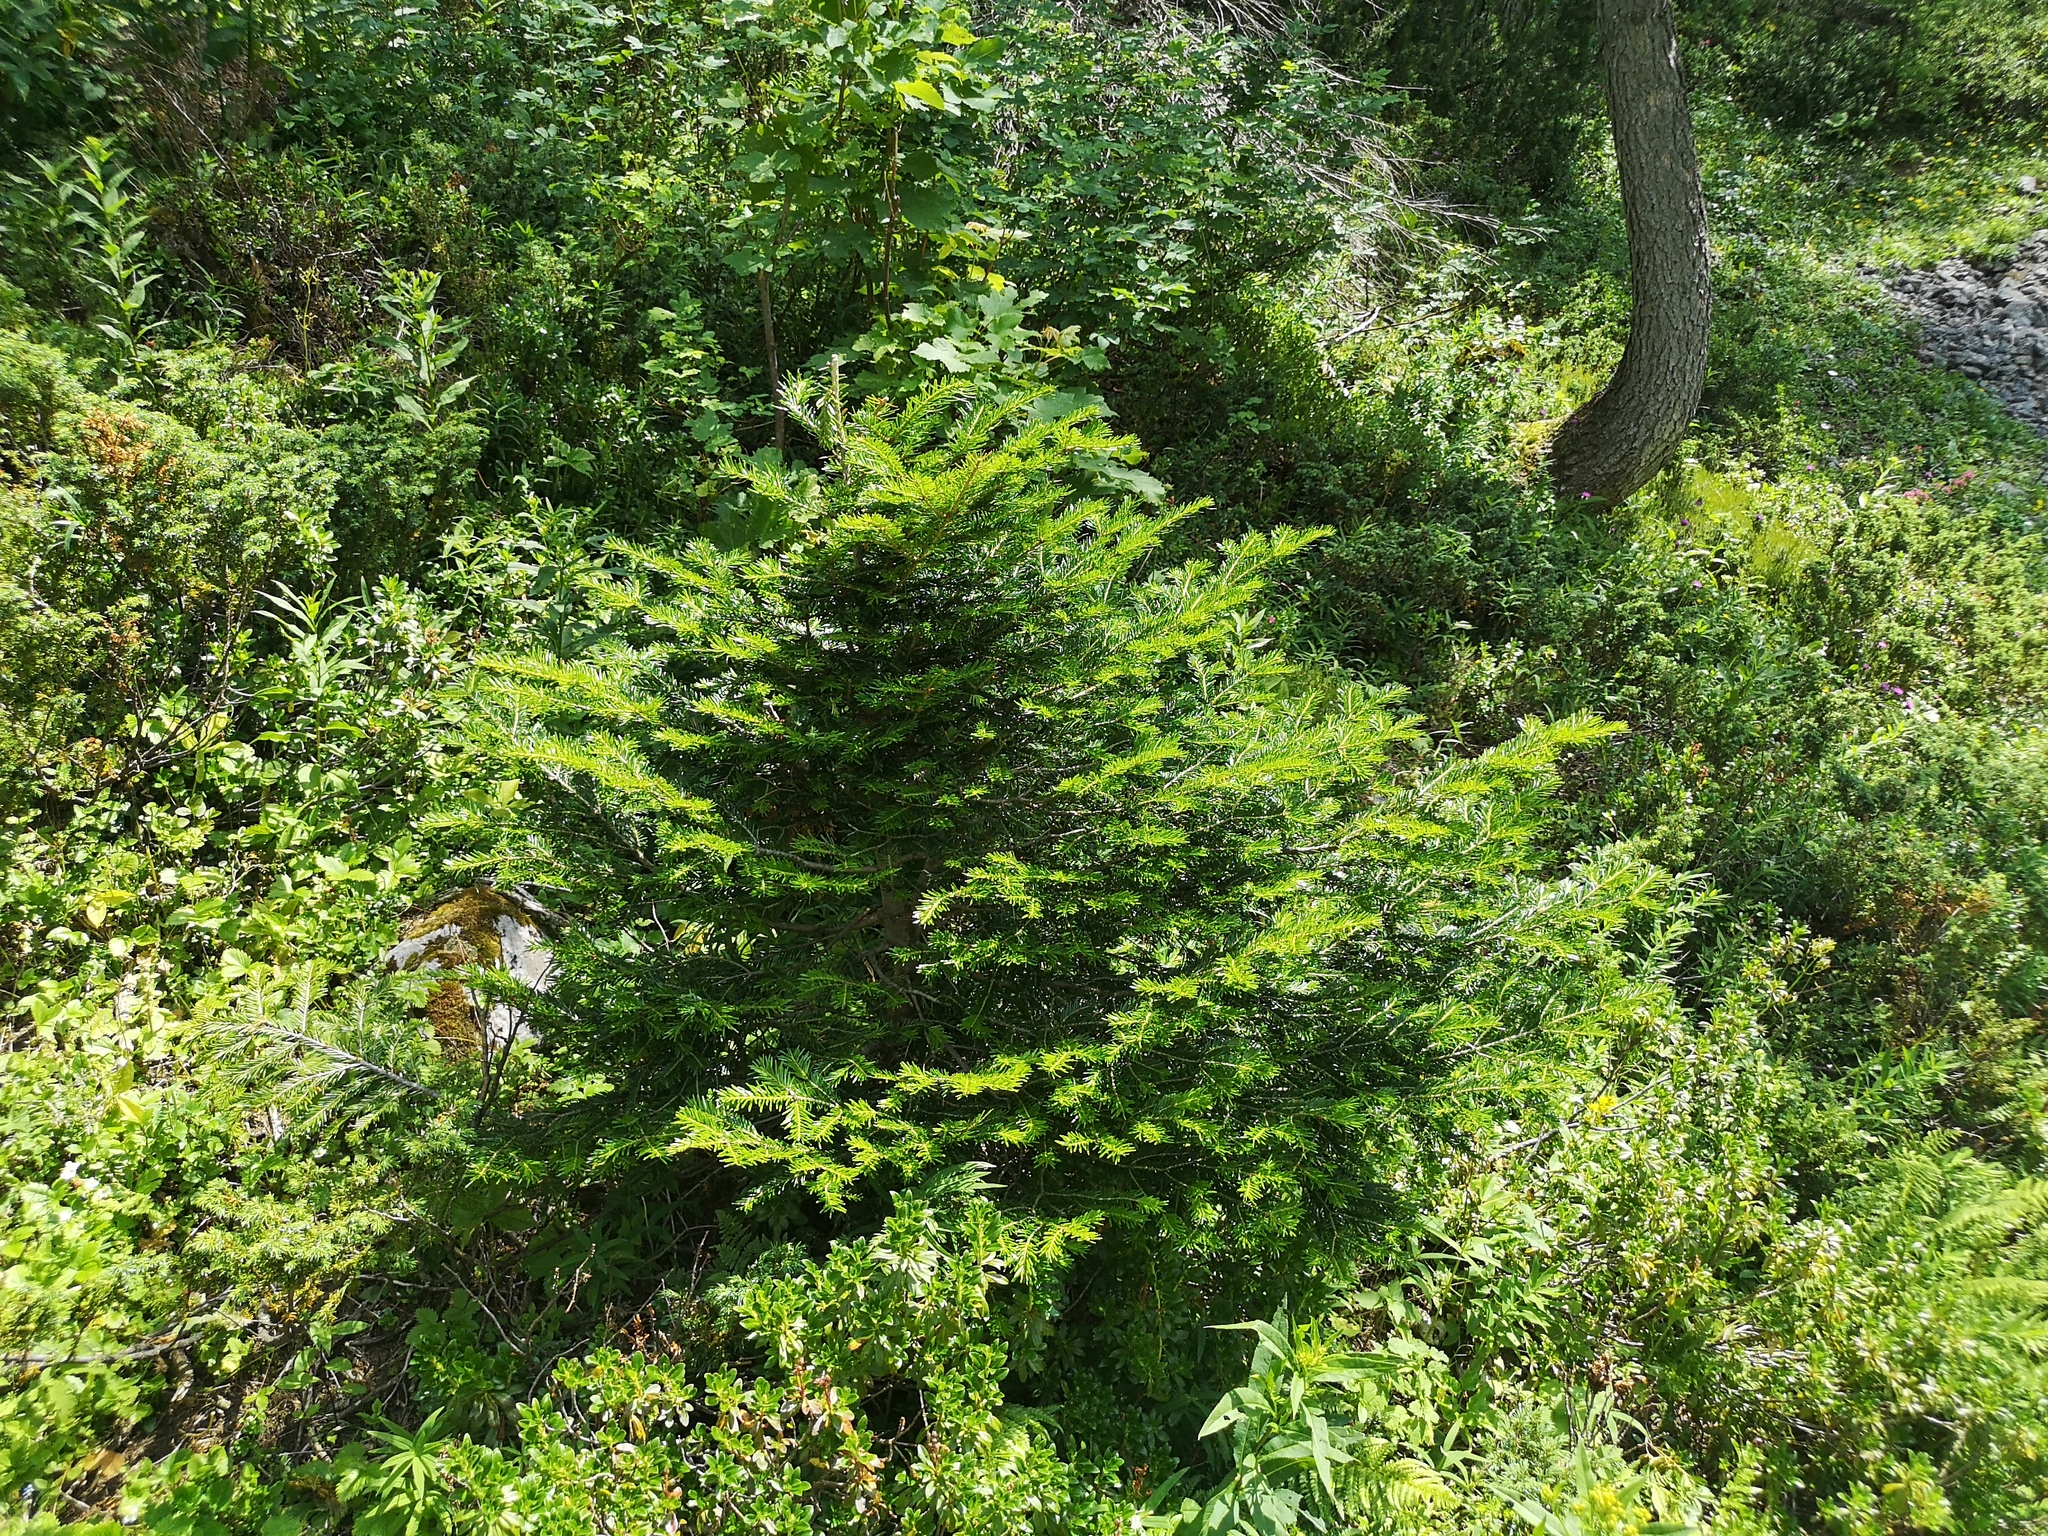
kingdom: Plantae
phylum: Tracheophyta
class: Pinopsida
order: Pinales
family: Pinaceae
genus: Abies
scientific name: Abies alba
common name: Silver fir
